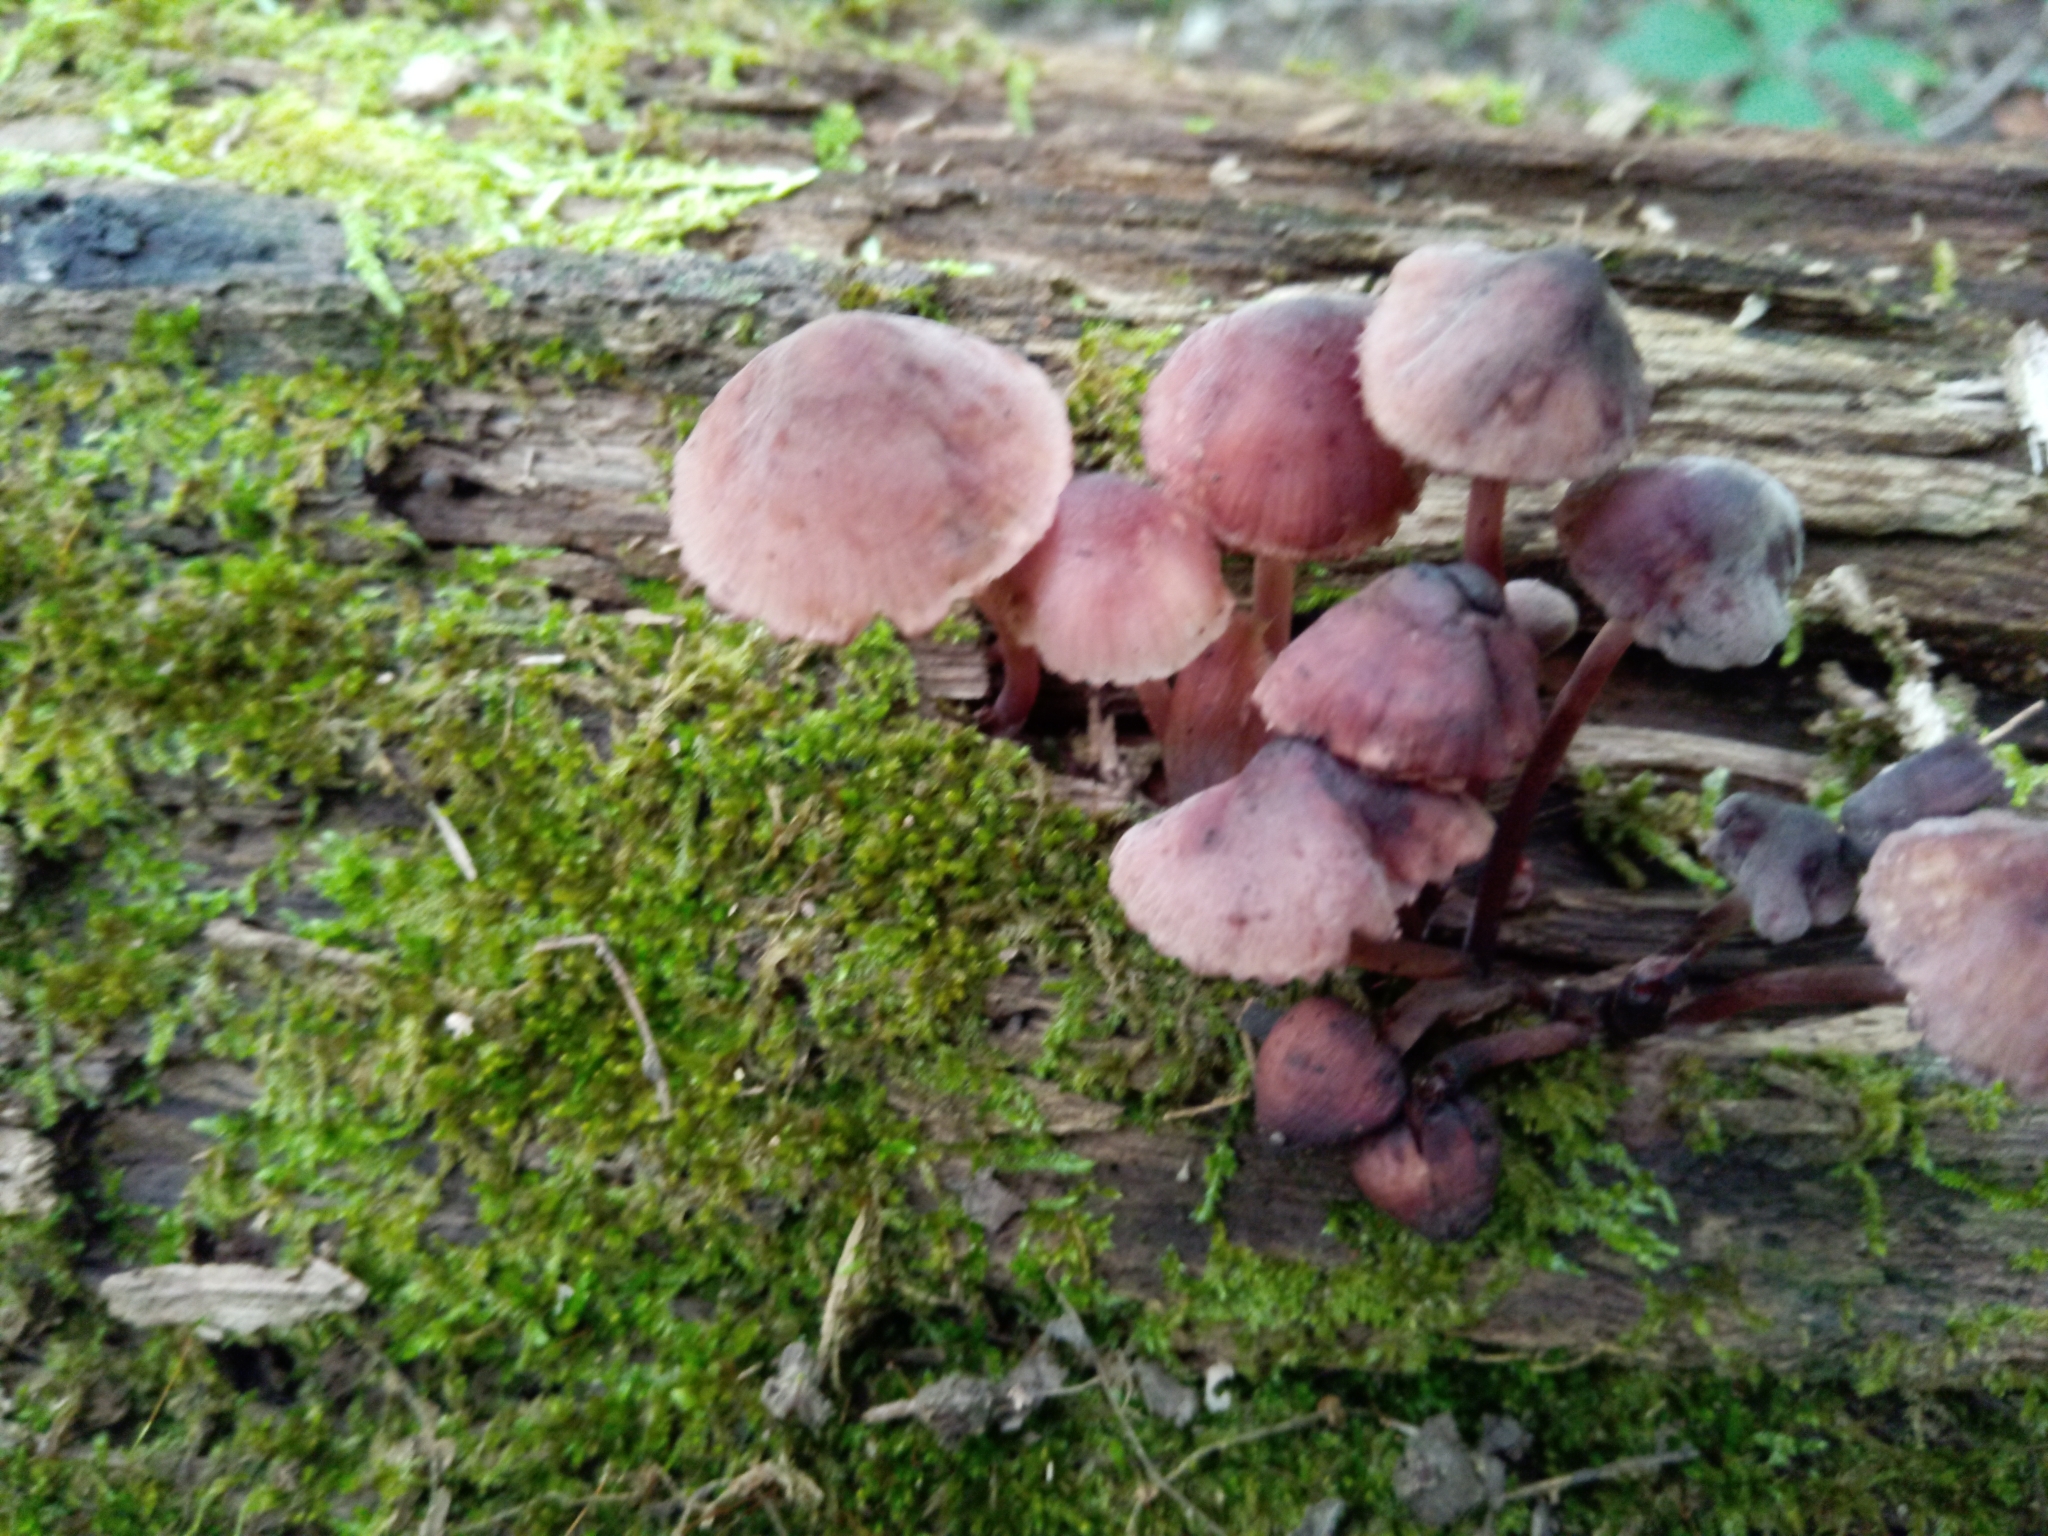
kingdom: Fungi
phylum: Basidiomycota
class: Agaricomycetes
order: Agaricales
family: Mycenaceae
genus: Mycena
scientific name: Mycena haematopus
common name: Burgundydrop bonnet
